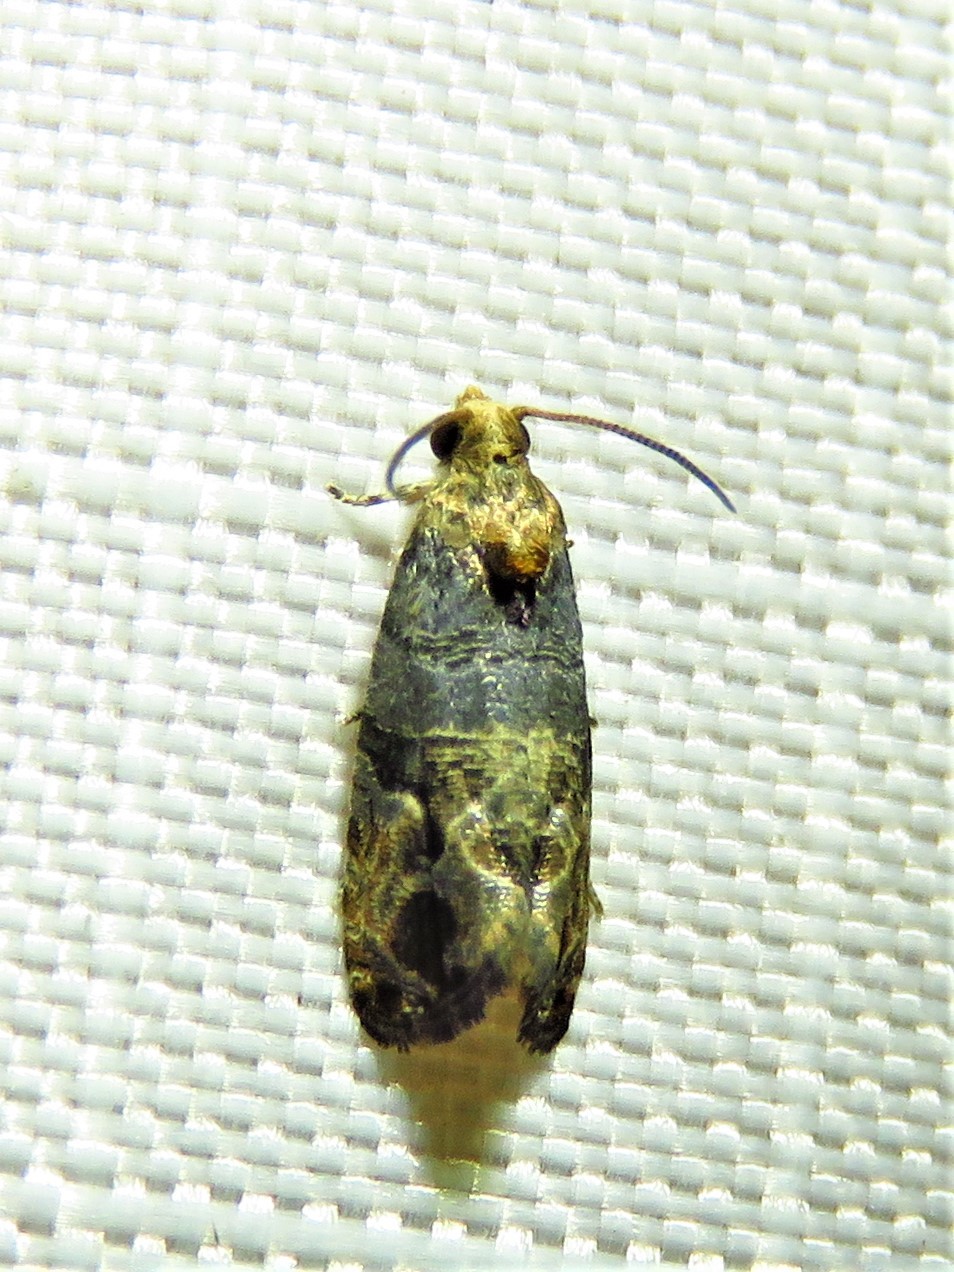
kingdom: Animalia
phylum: Arthropoda
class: Insecta
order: Lepidoptera
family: Tortricidae
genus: Paralobesia
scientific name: Paralobesia viteana
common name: Grape berry moth
